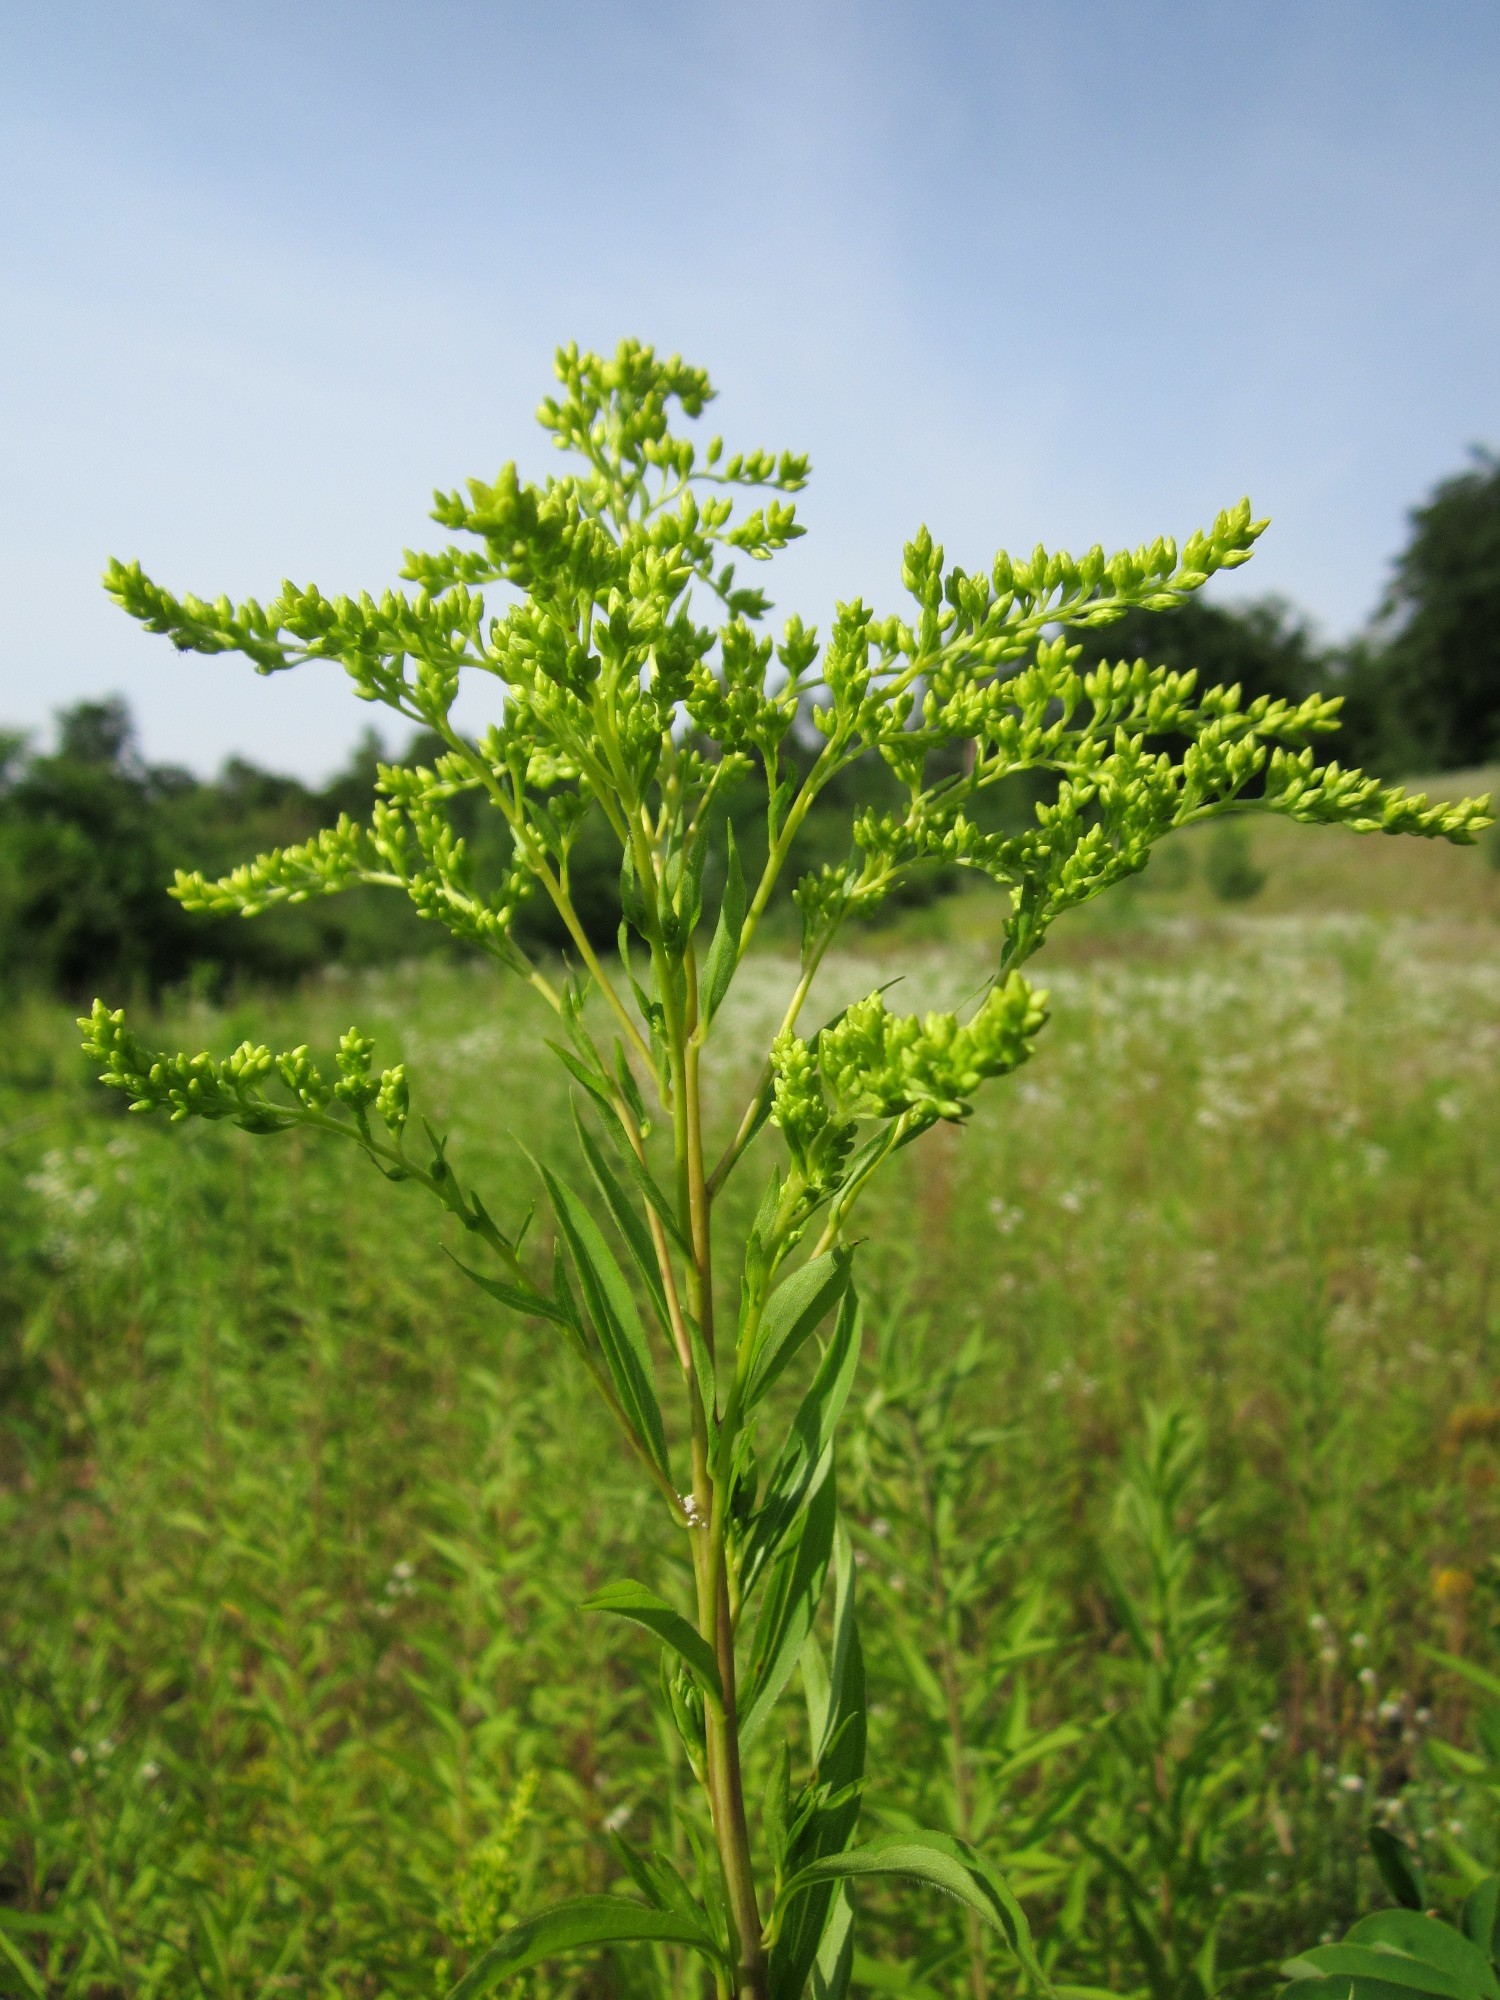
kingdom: Plantae
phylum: Tracheophyta
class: Magnoliopsida
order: Asterales
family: Asteraceae
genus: Solidago
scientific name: Solidago gigantea
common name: Giant goldenrod
